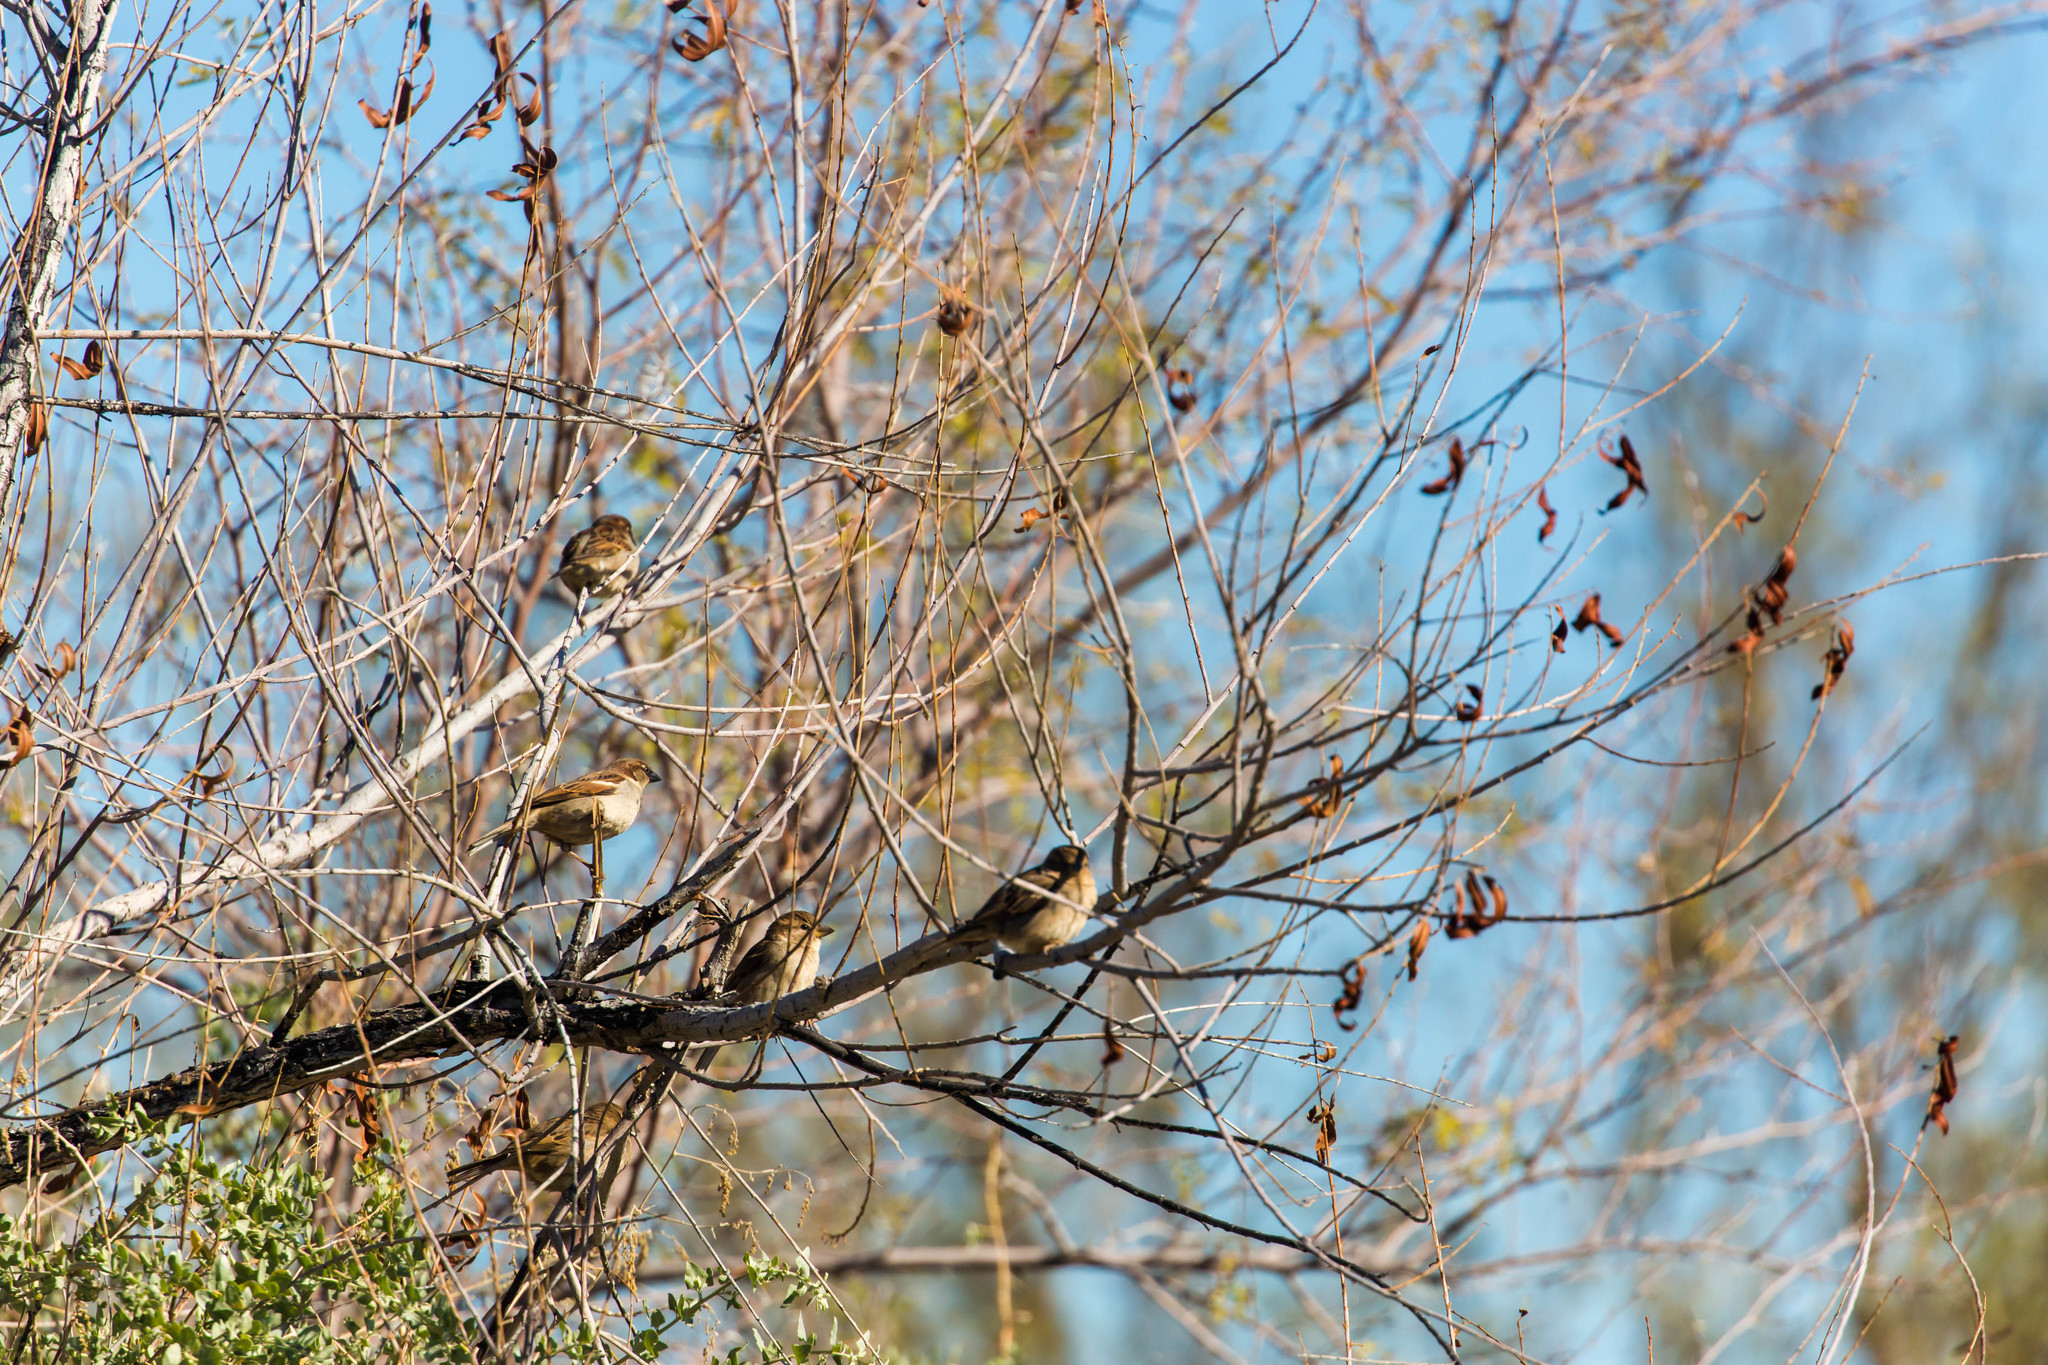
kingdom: Animalia
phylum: Chordata
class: Aves
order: Passeriformes
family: Passeridae
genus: Passer
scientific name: Passer domesticus
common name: House sparrow
